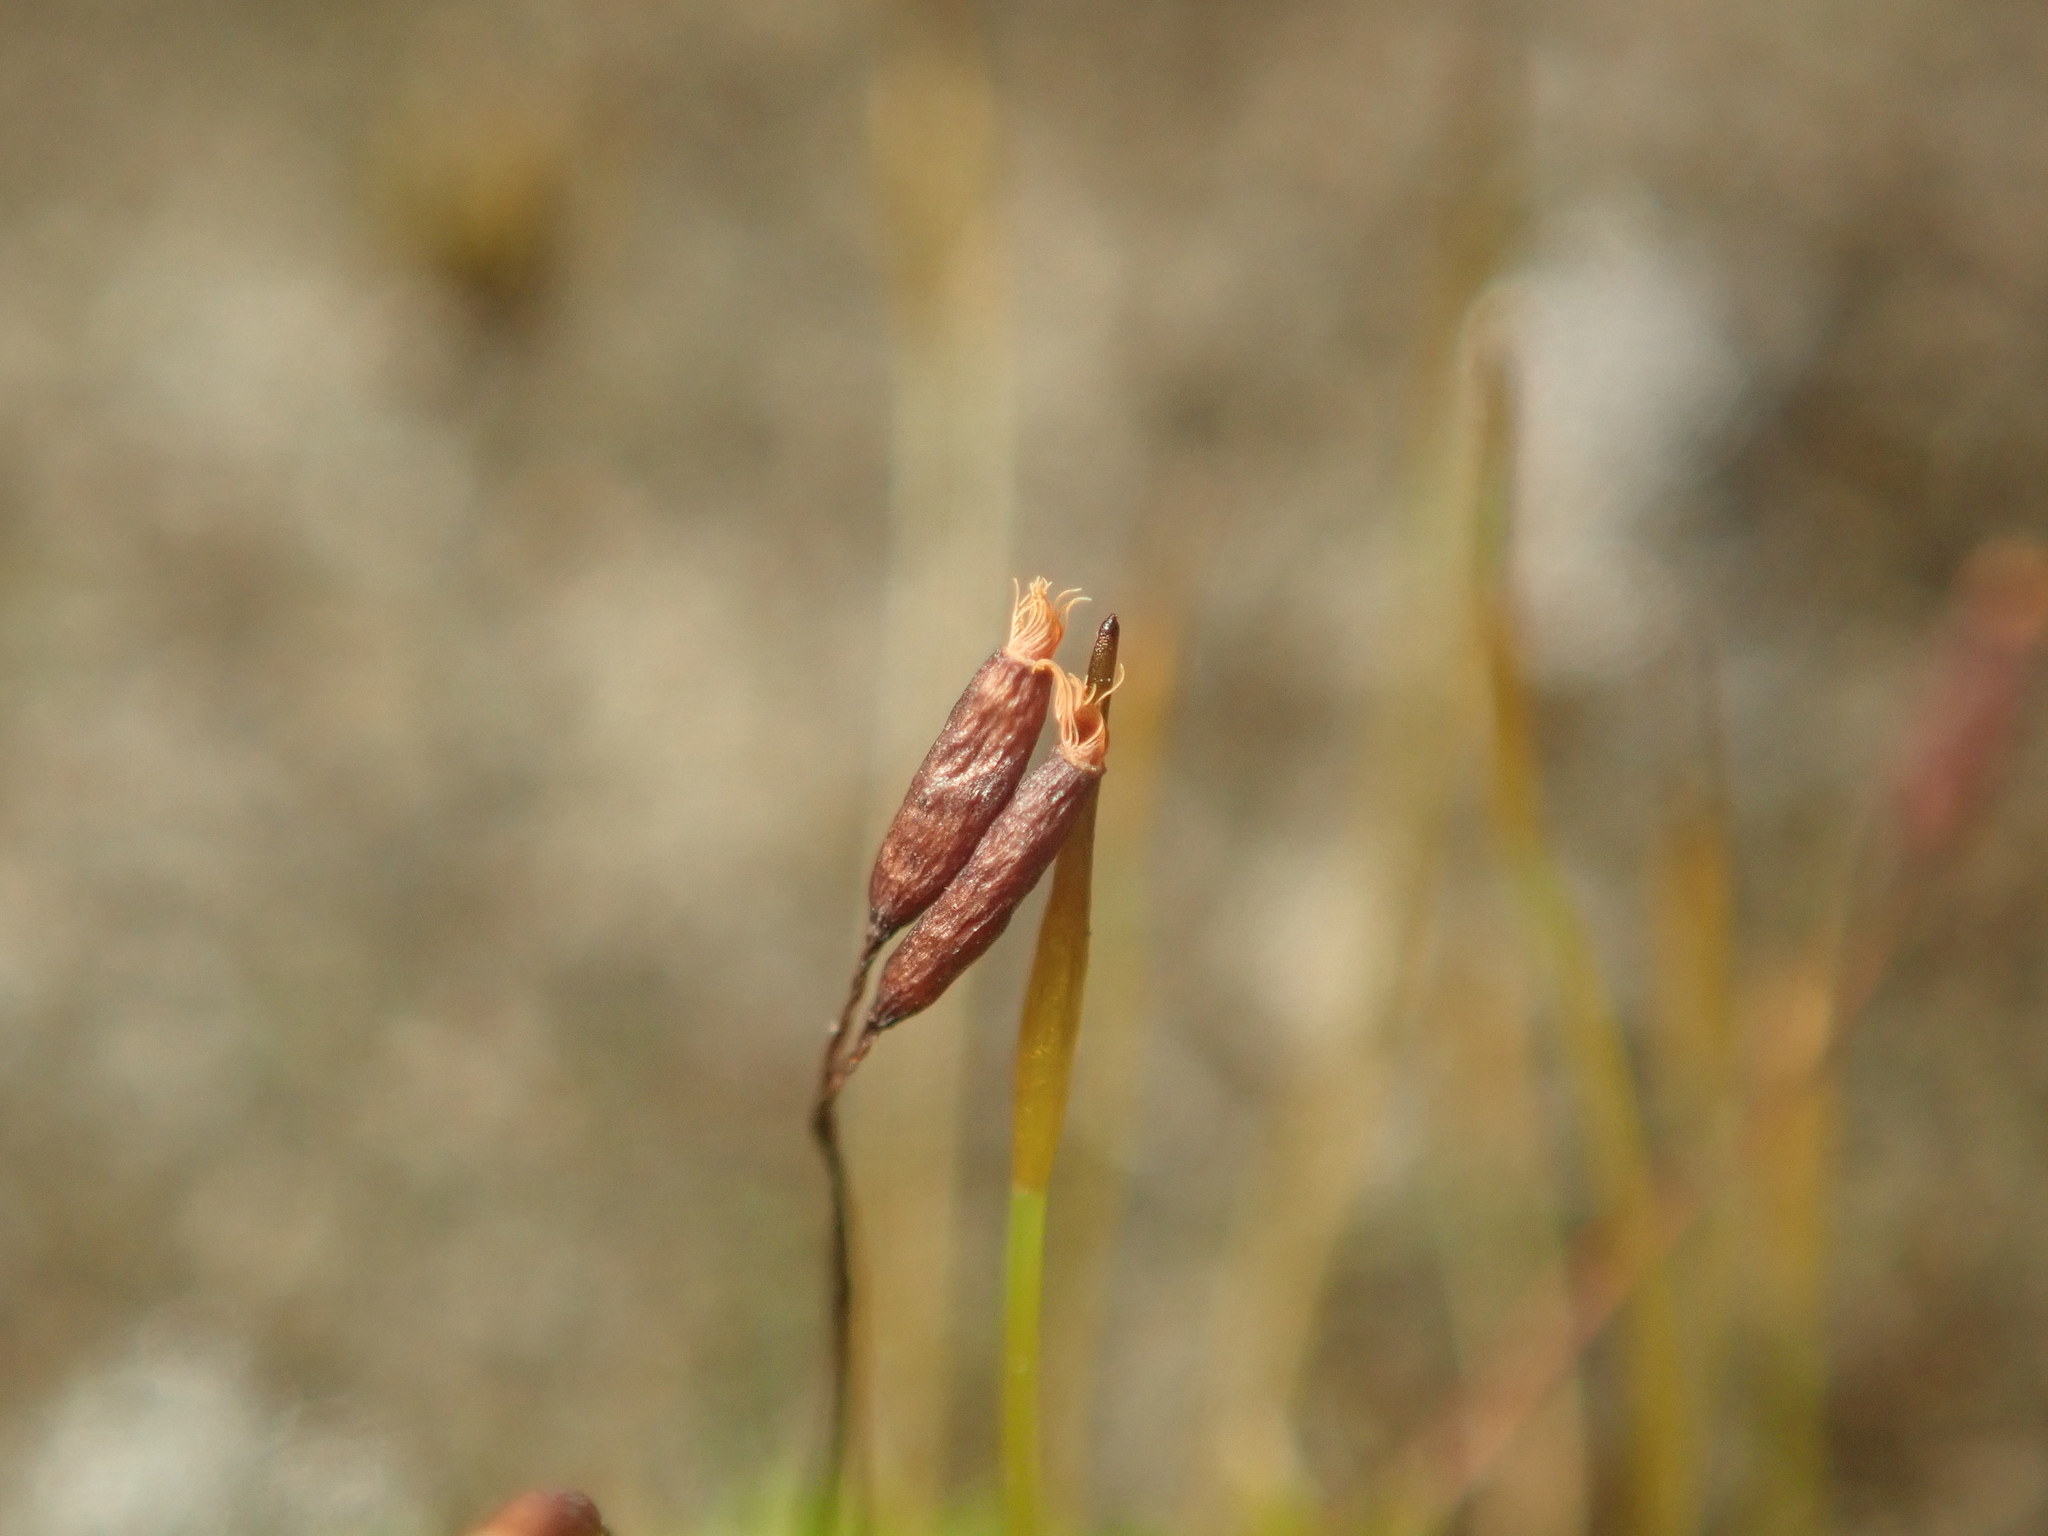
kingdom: Plantae
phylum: Bryophyta
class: Bryopsida
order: Pottiales
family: Pottiaceae
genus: Tortula
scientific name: Tortula muralis
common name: Wall screw-moss
